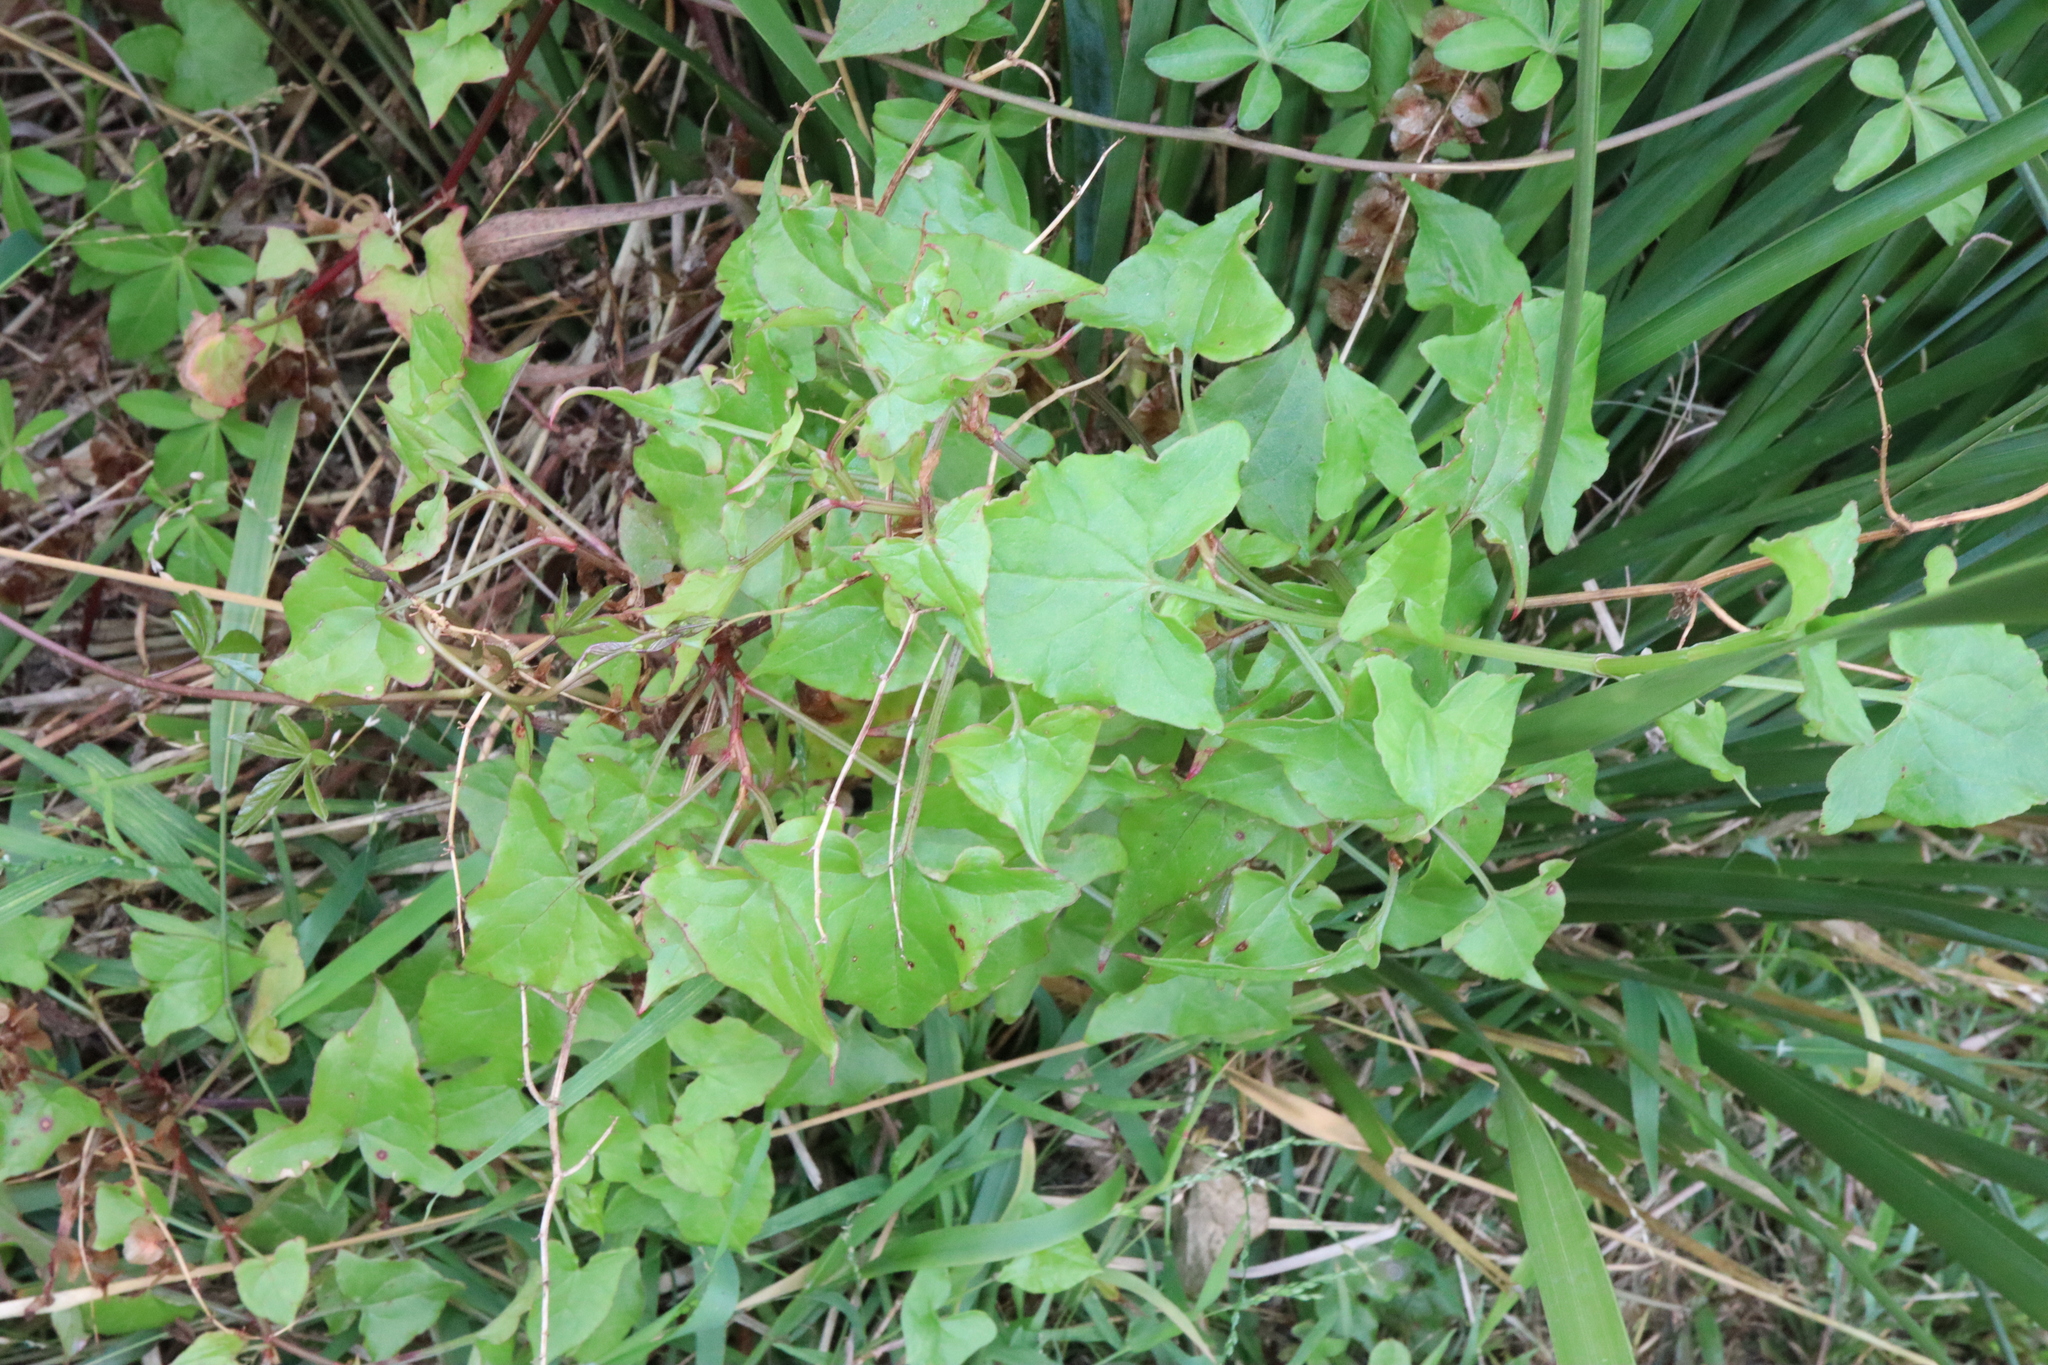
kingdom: Plantae
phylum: Tracheophyta
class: Magnoliopsida
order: Caryophyllales
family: Polygonaceae
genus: Rumex
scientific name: Rumex sagittatus
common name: Climbing dock
